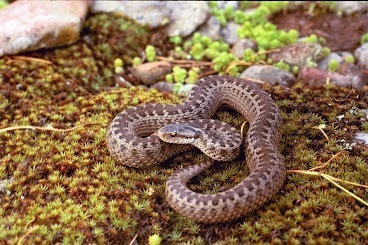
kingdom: Animalia
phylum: Chordata
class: Squamata
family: Viperidae
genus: Vipera
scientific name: Vipera darevskii
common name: Darevsky's viper
